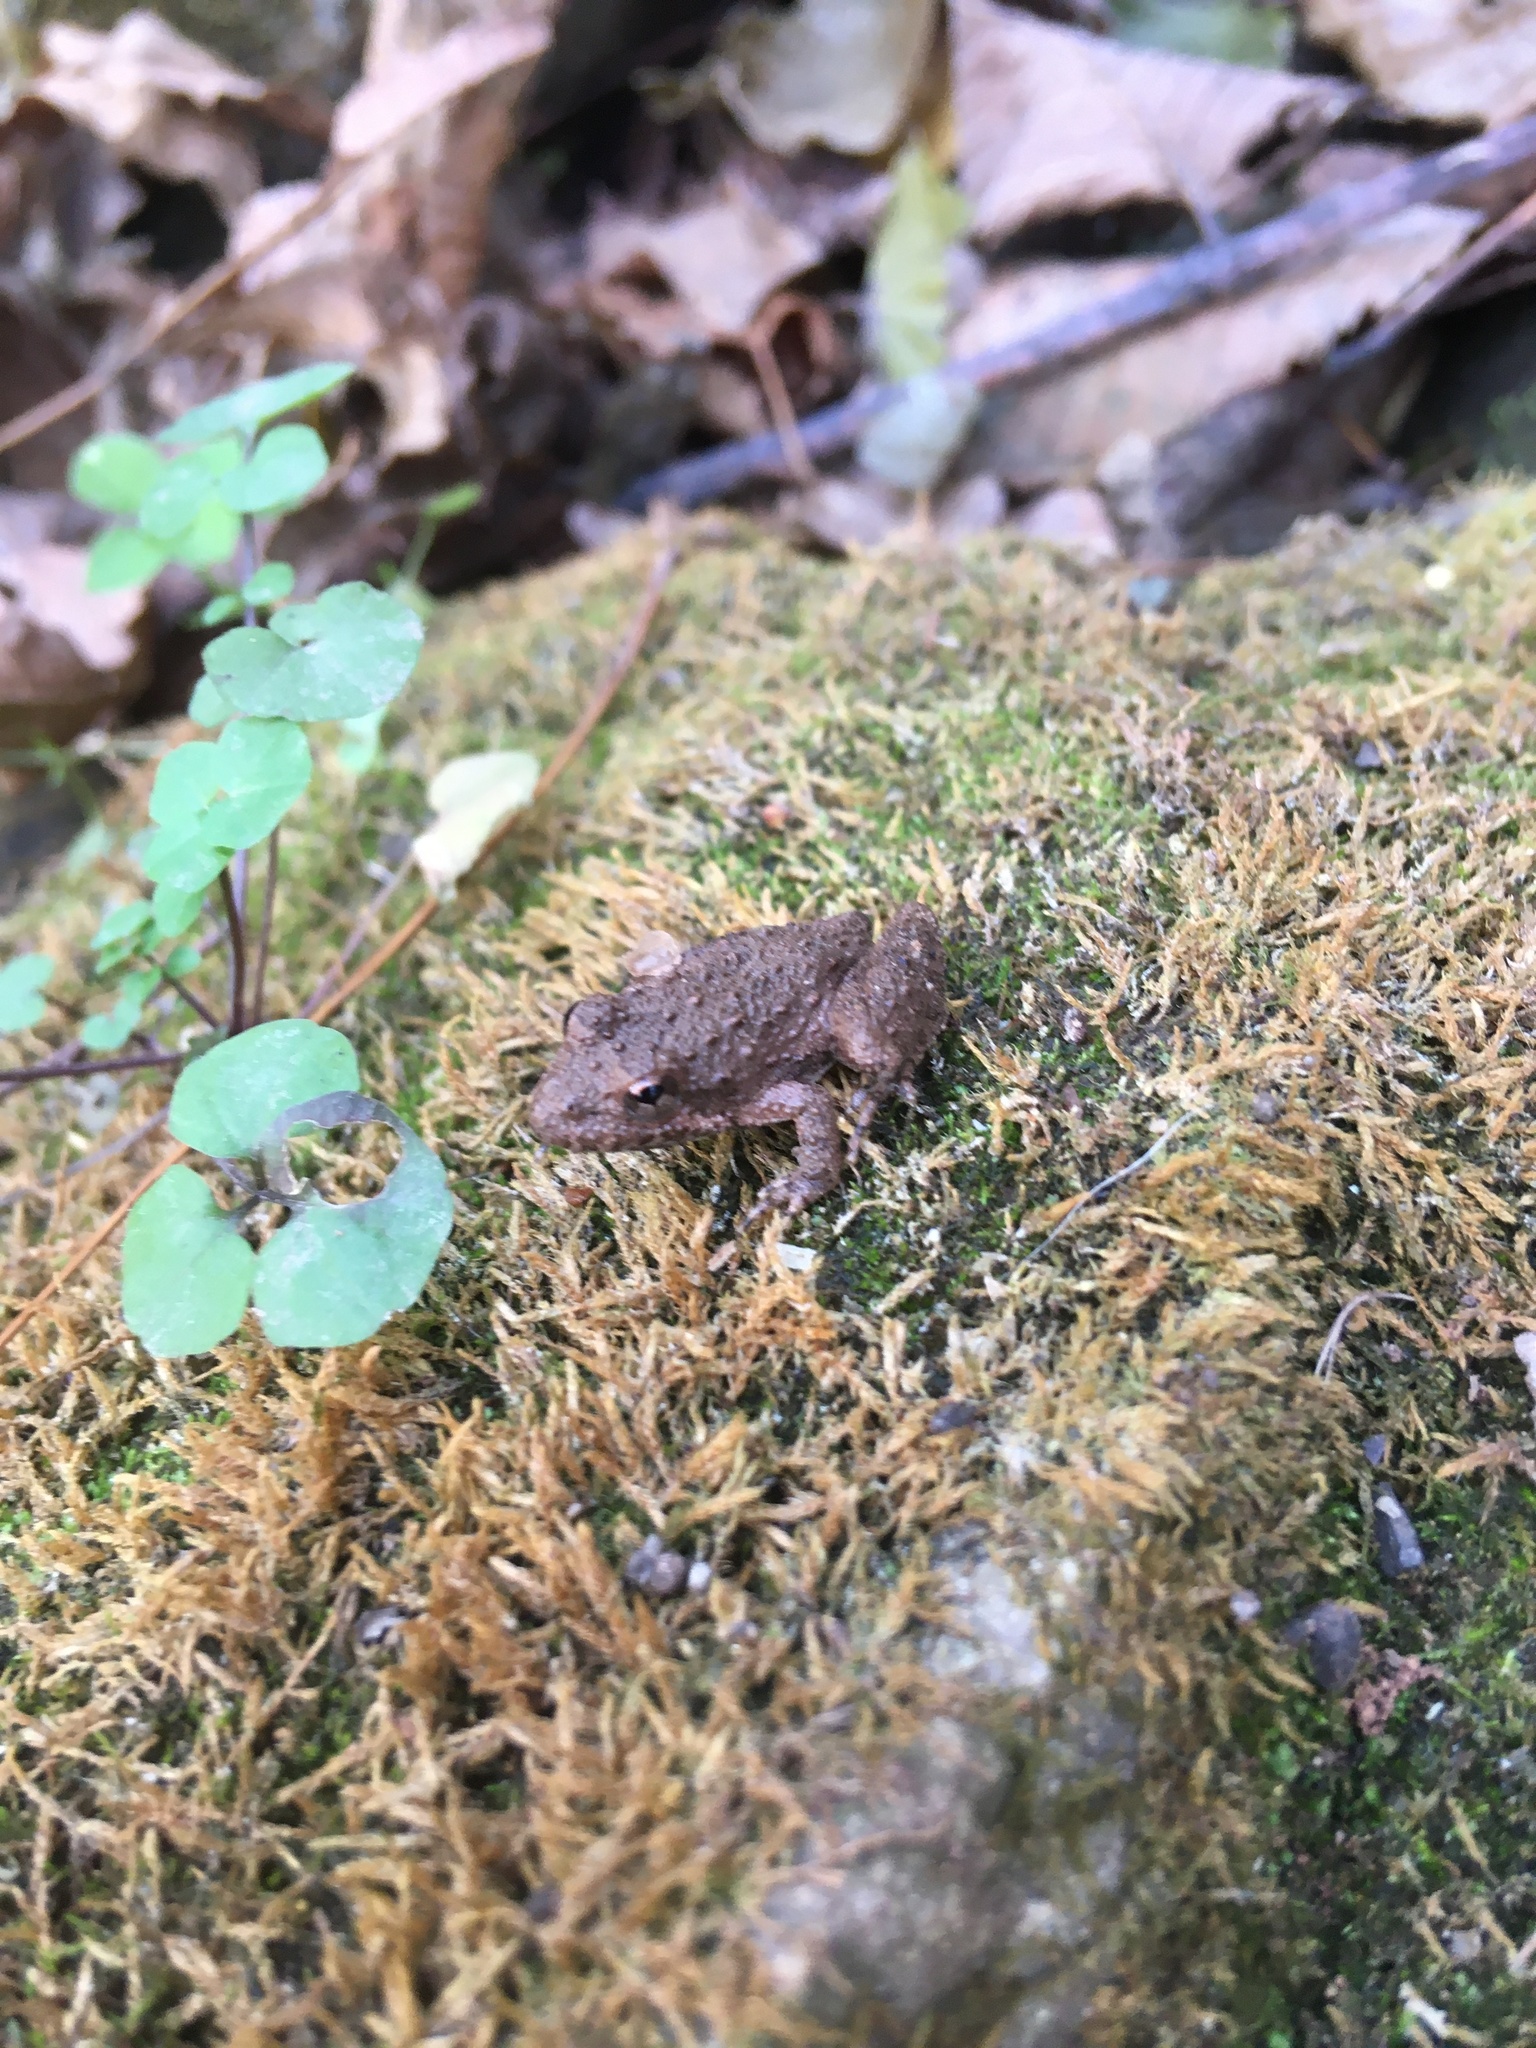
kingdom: Animalia
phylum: Chordata
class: Amphibia
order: Anura
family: Hylidae
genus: Acris
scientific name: Acris blanchardi
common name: Blanchard's cricket frog
